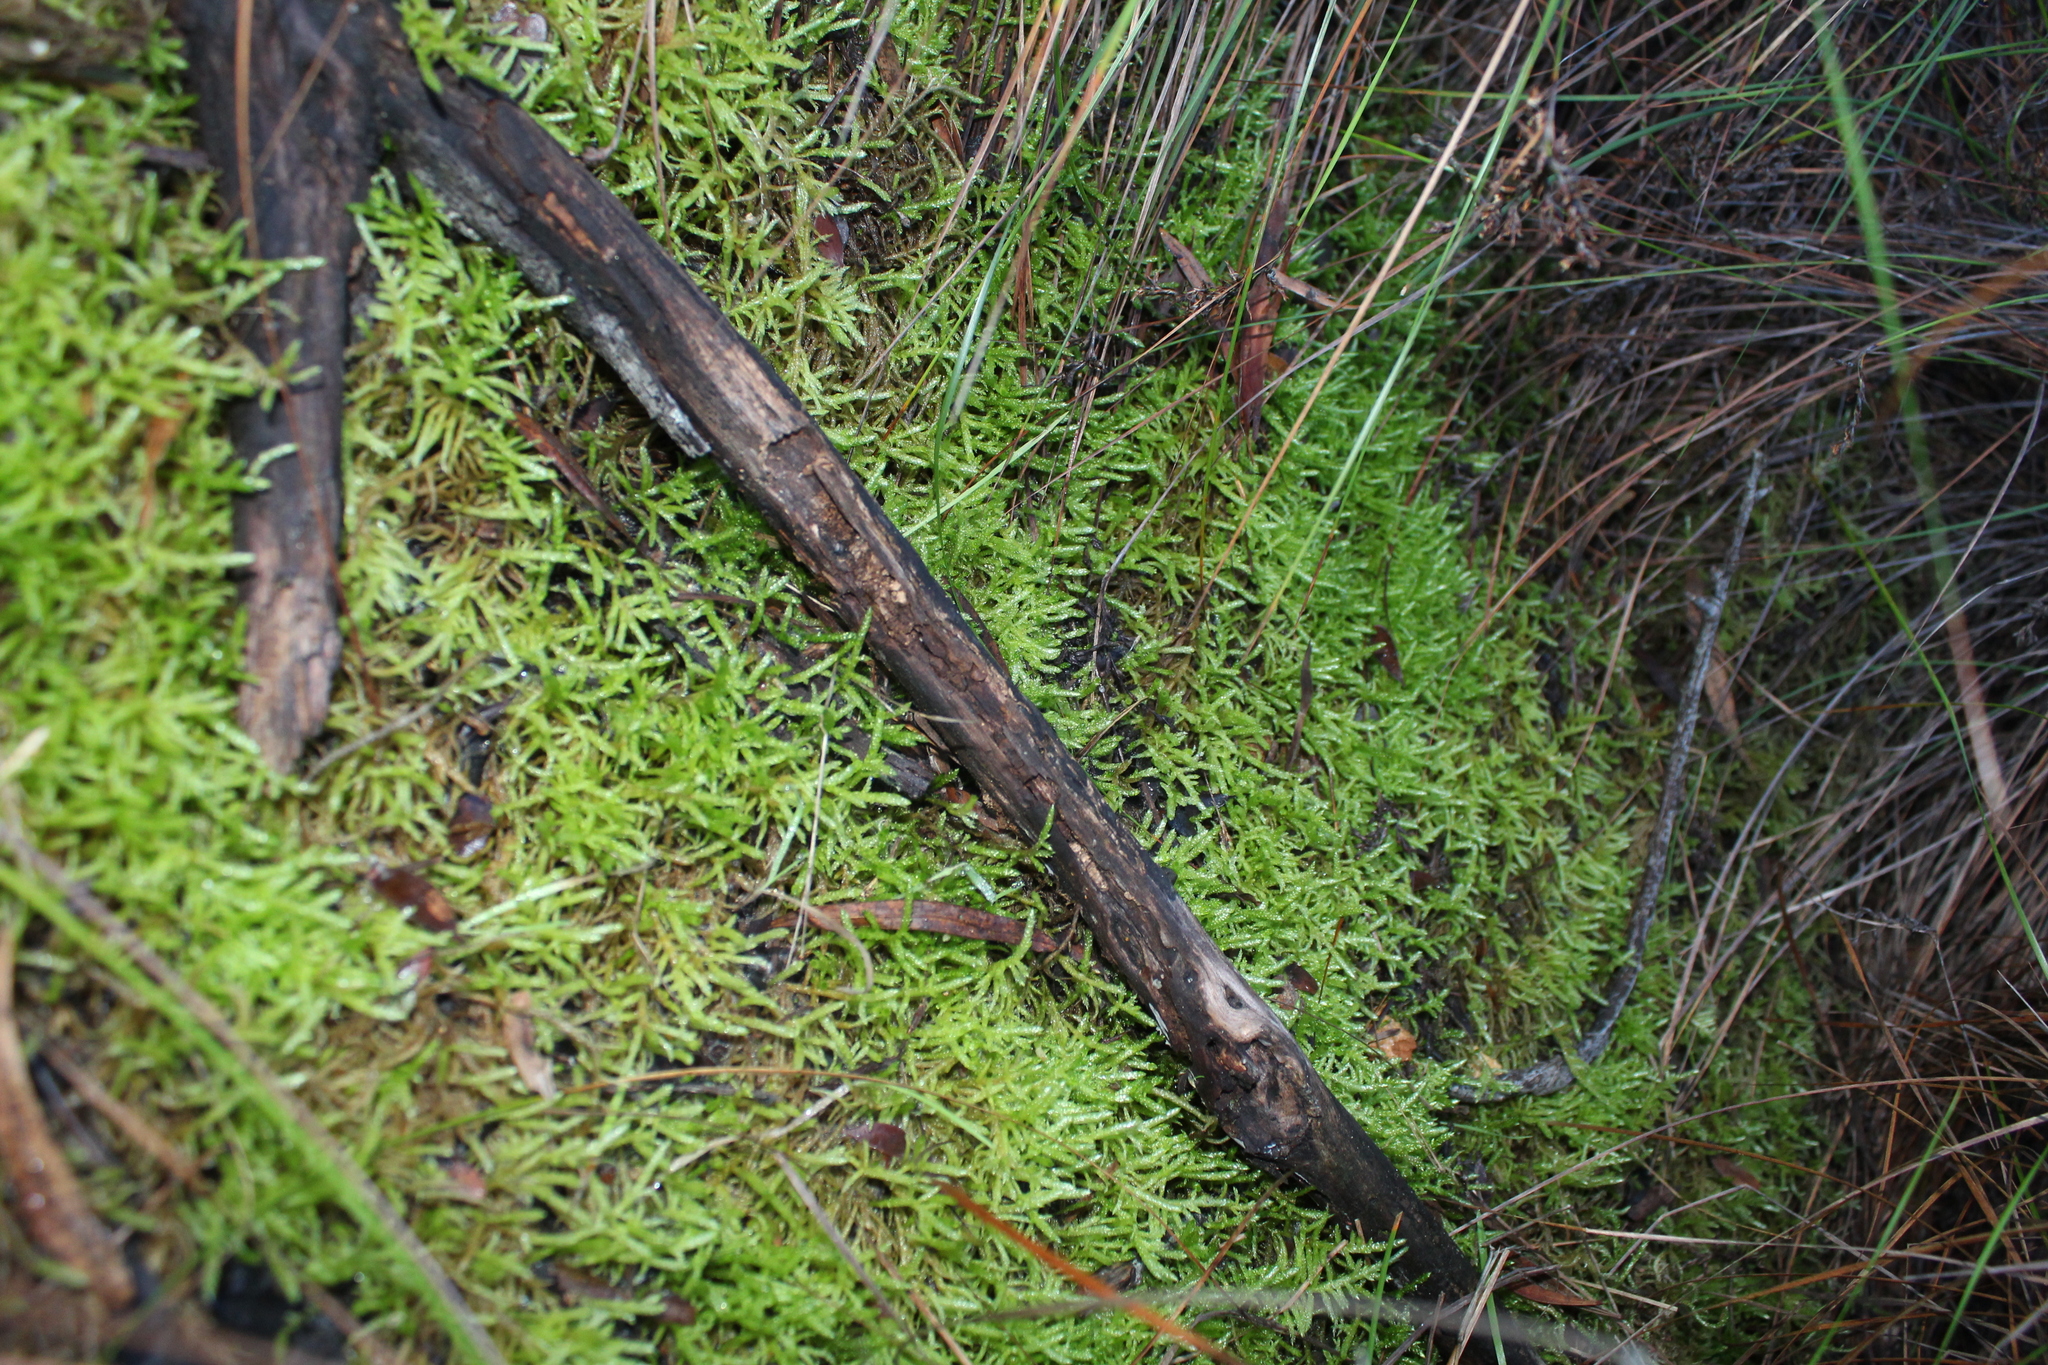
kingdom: Plantae
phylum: Bryophyta
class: Bryopsida
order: Hypnales
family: Brachytheciaceae
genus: Pseudoscleropodium
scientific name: Pseudoscleropodium purum
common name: Neat feather-moss
